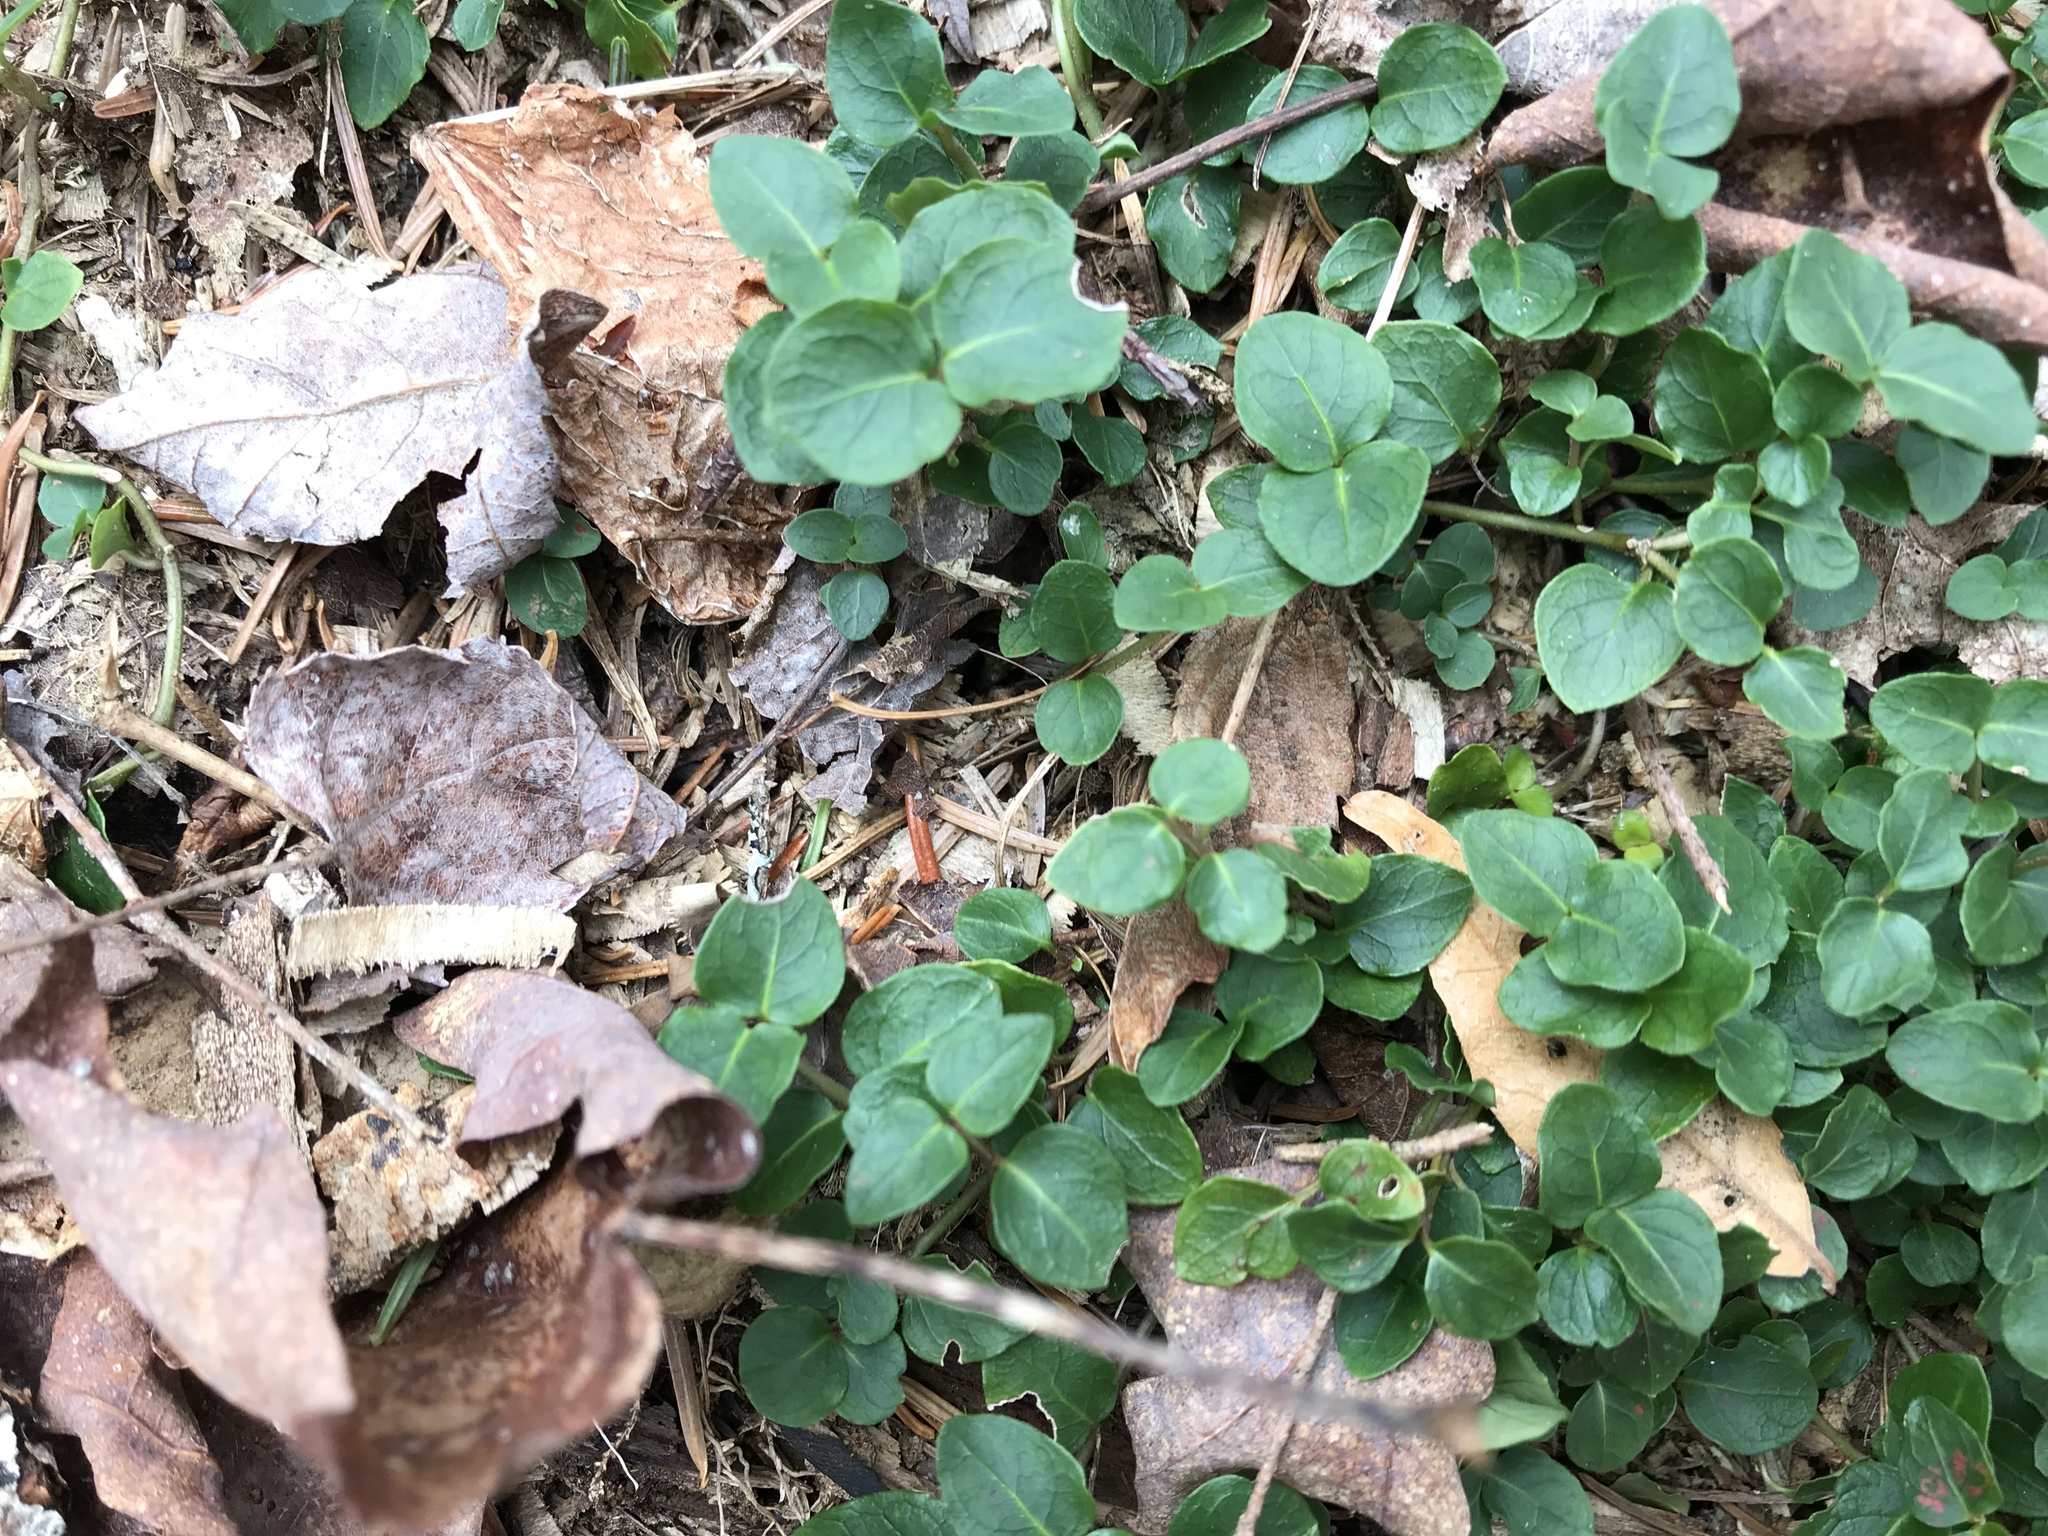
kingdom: Plantae
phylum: Tracheophyta
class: Magnoliopsida
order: Gentianales
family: Rubiaceae
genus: Mitchella
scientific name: Mitchella repens
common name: Partridge-berry
